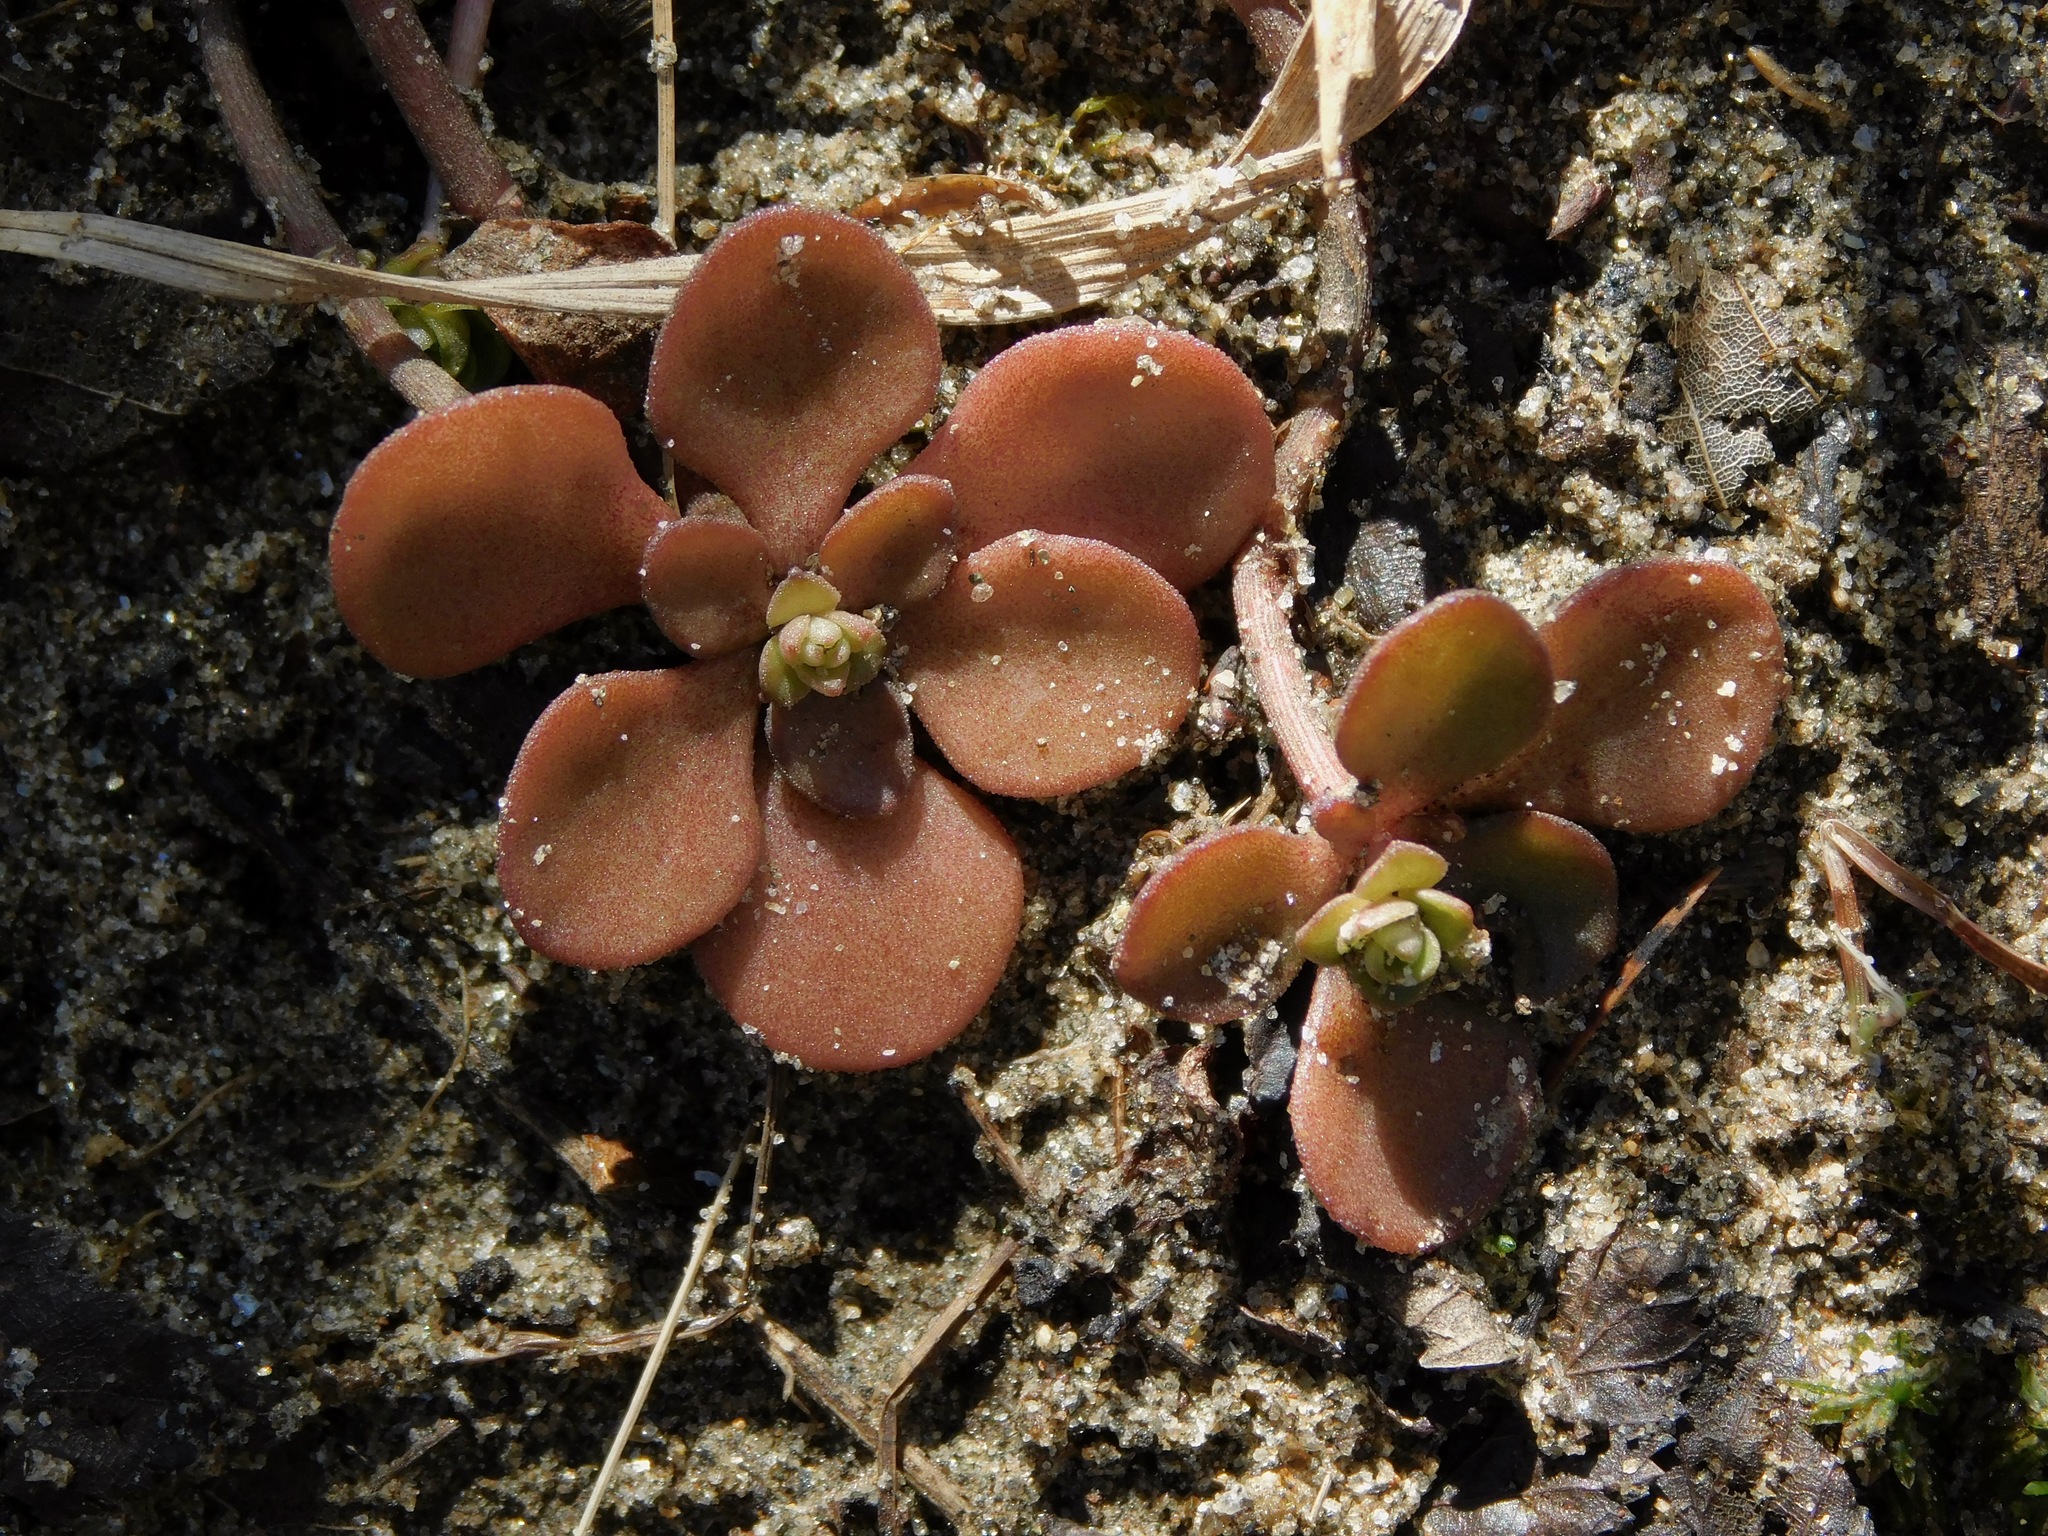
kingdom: Plantae
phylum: Tracheophyta
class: Magnoliopsida
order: Saxifragales
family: Crassulaceae
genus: Sedum
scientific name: Sedum ternatum
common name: Wild stonecrop
